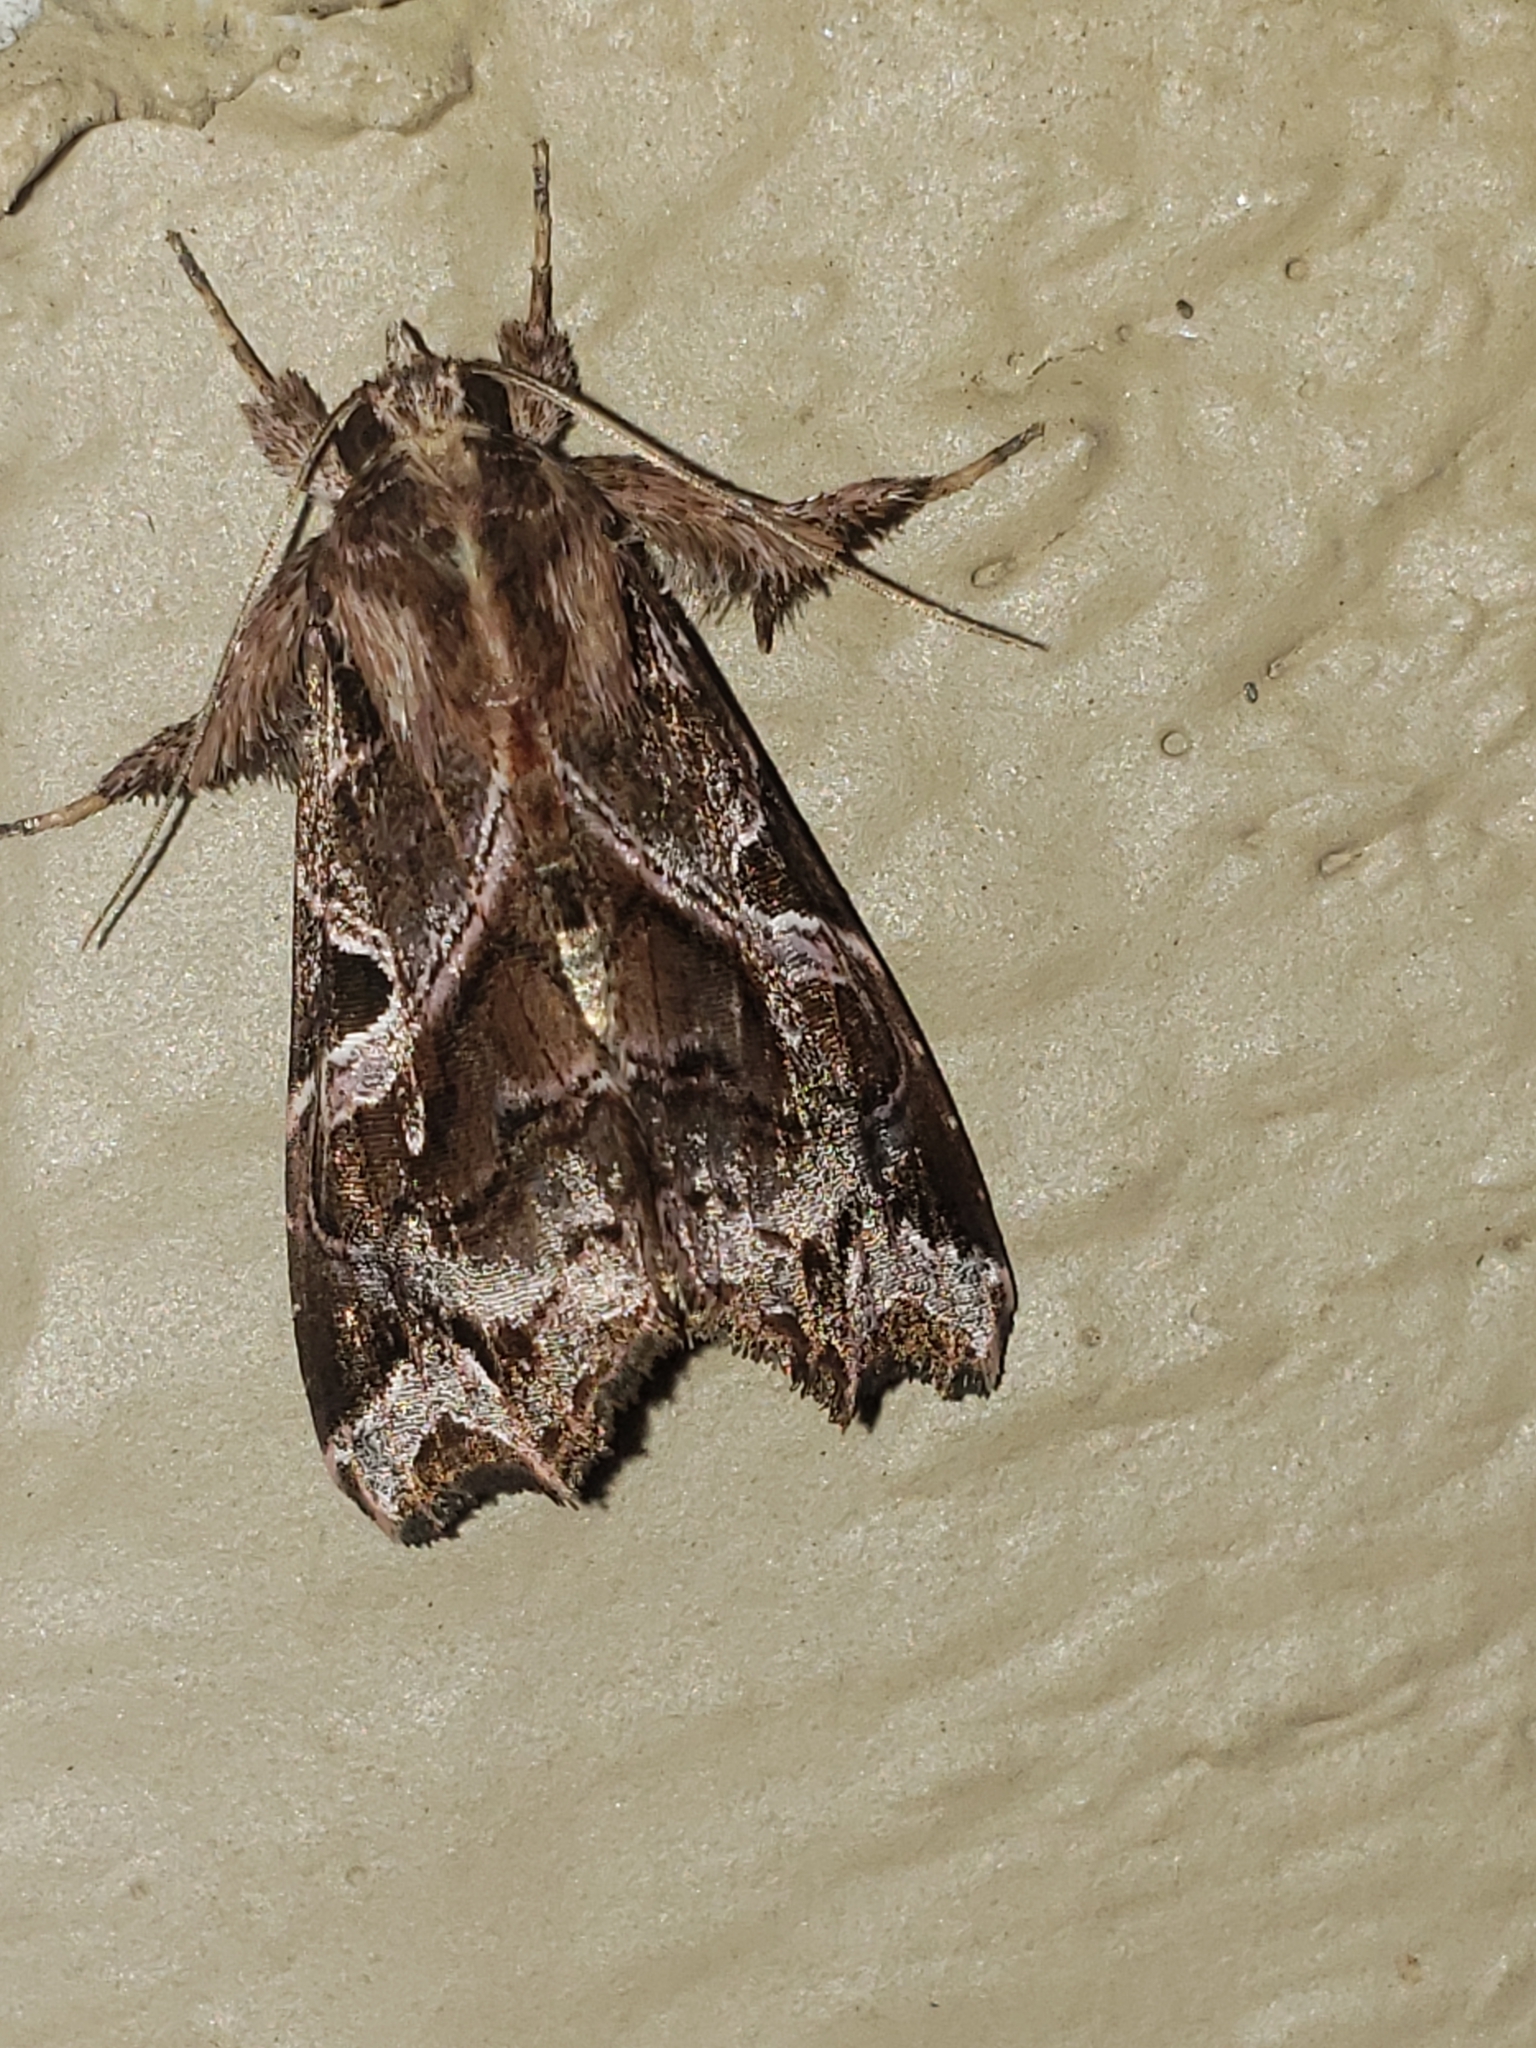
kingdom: Animalia
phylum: Arthropoda
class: Insecta
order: Lepidoptera
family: Noctuidae
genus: Callopistria
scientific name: Callopistria floridensis
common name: Florida fern moth
